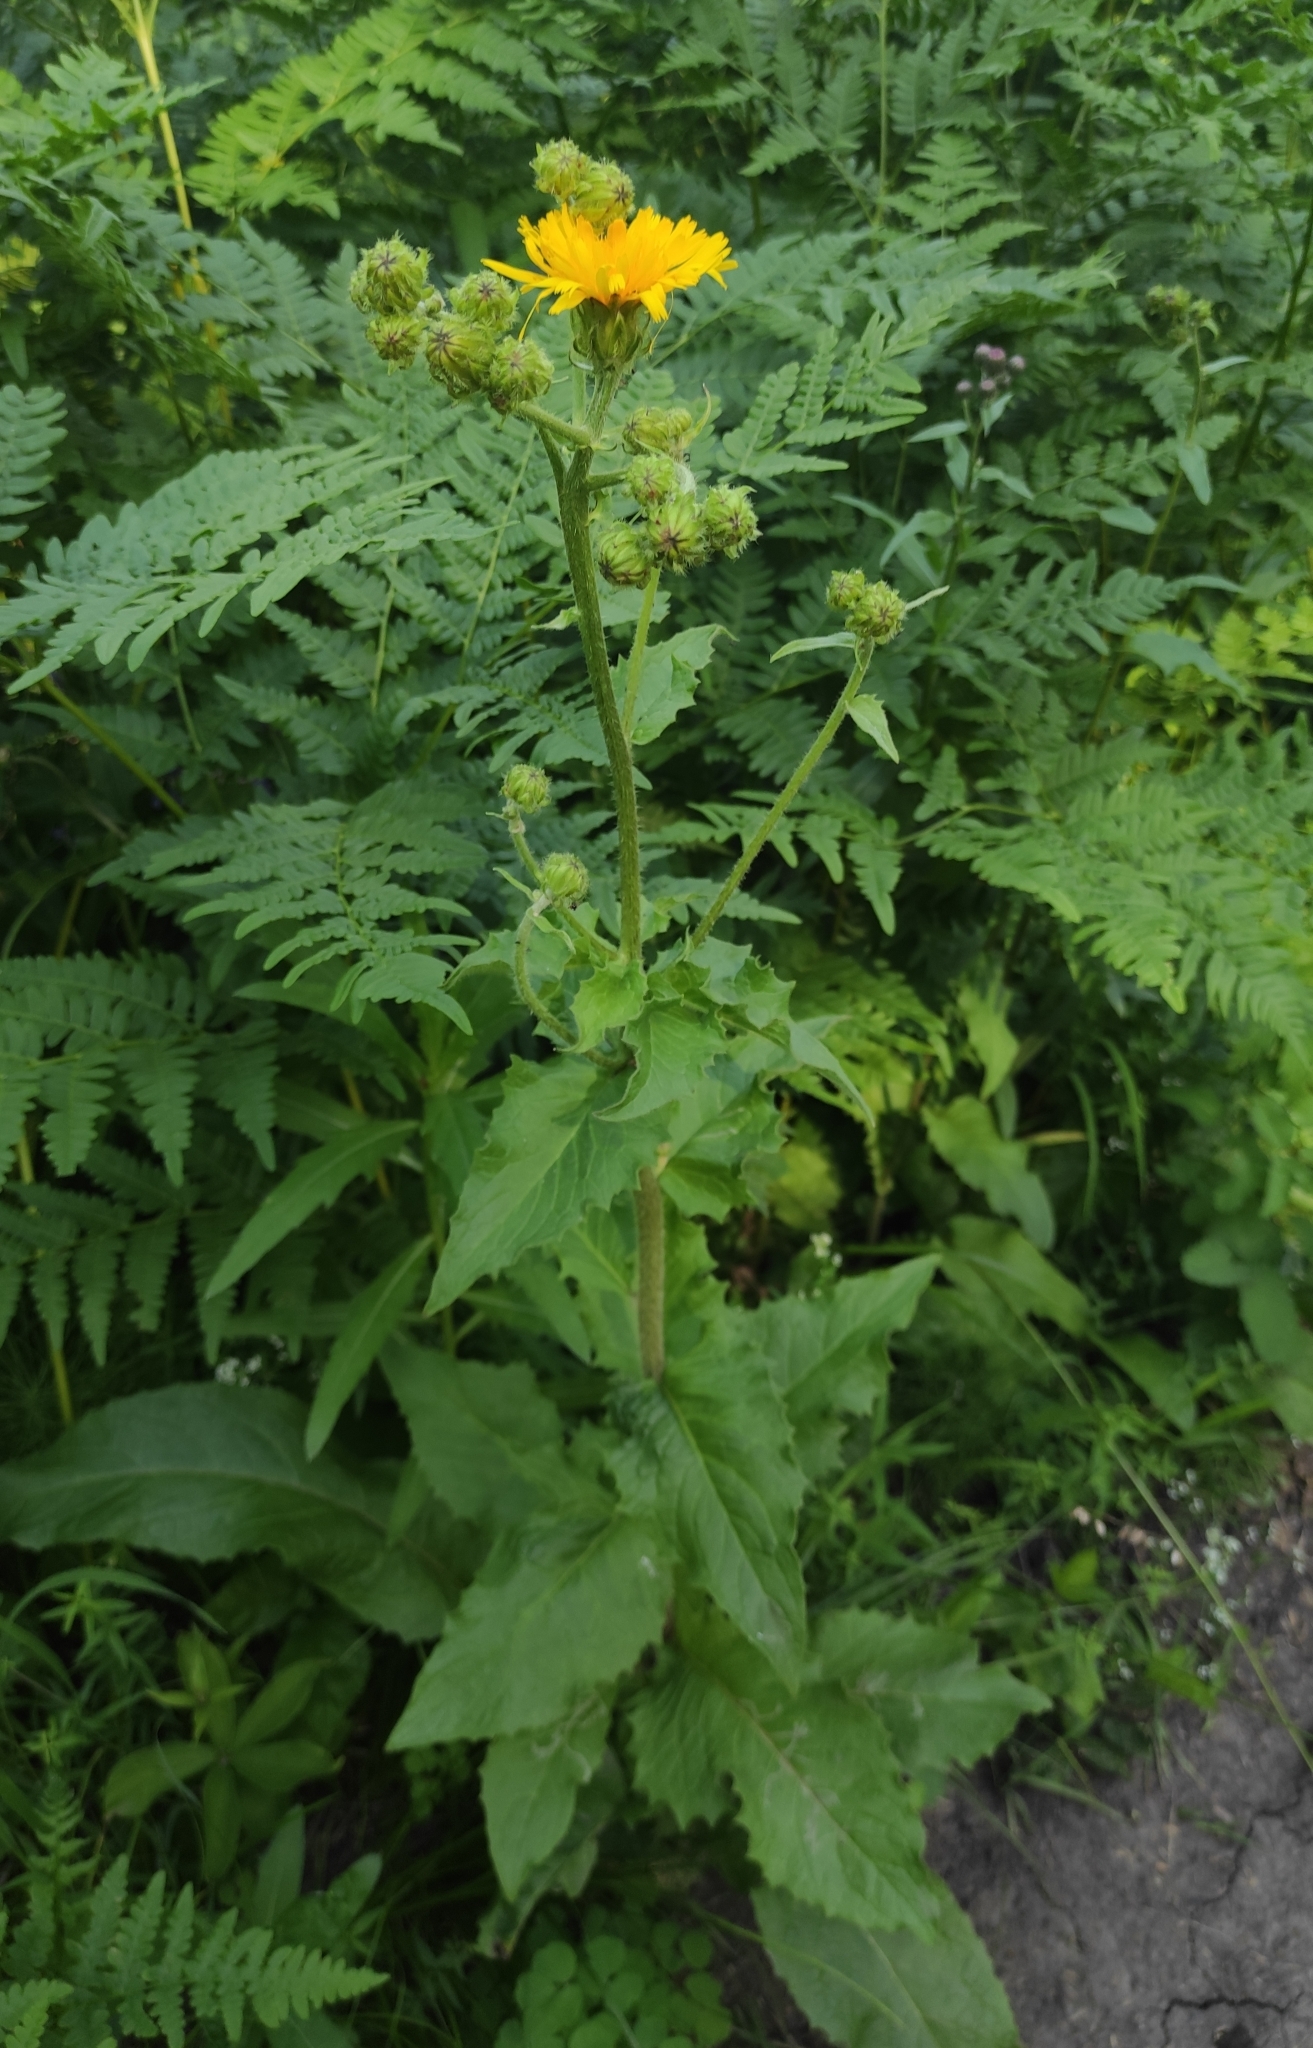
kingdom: Plantae
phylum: Tracheophyta
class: Magnoliopsida
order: Asterales
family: Asteraceae
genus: Crepis
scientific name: Crepis sibirica
